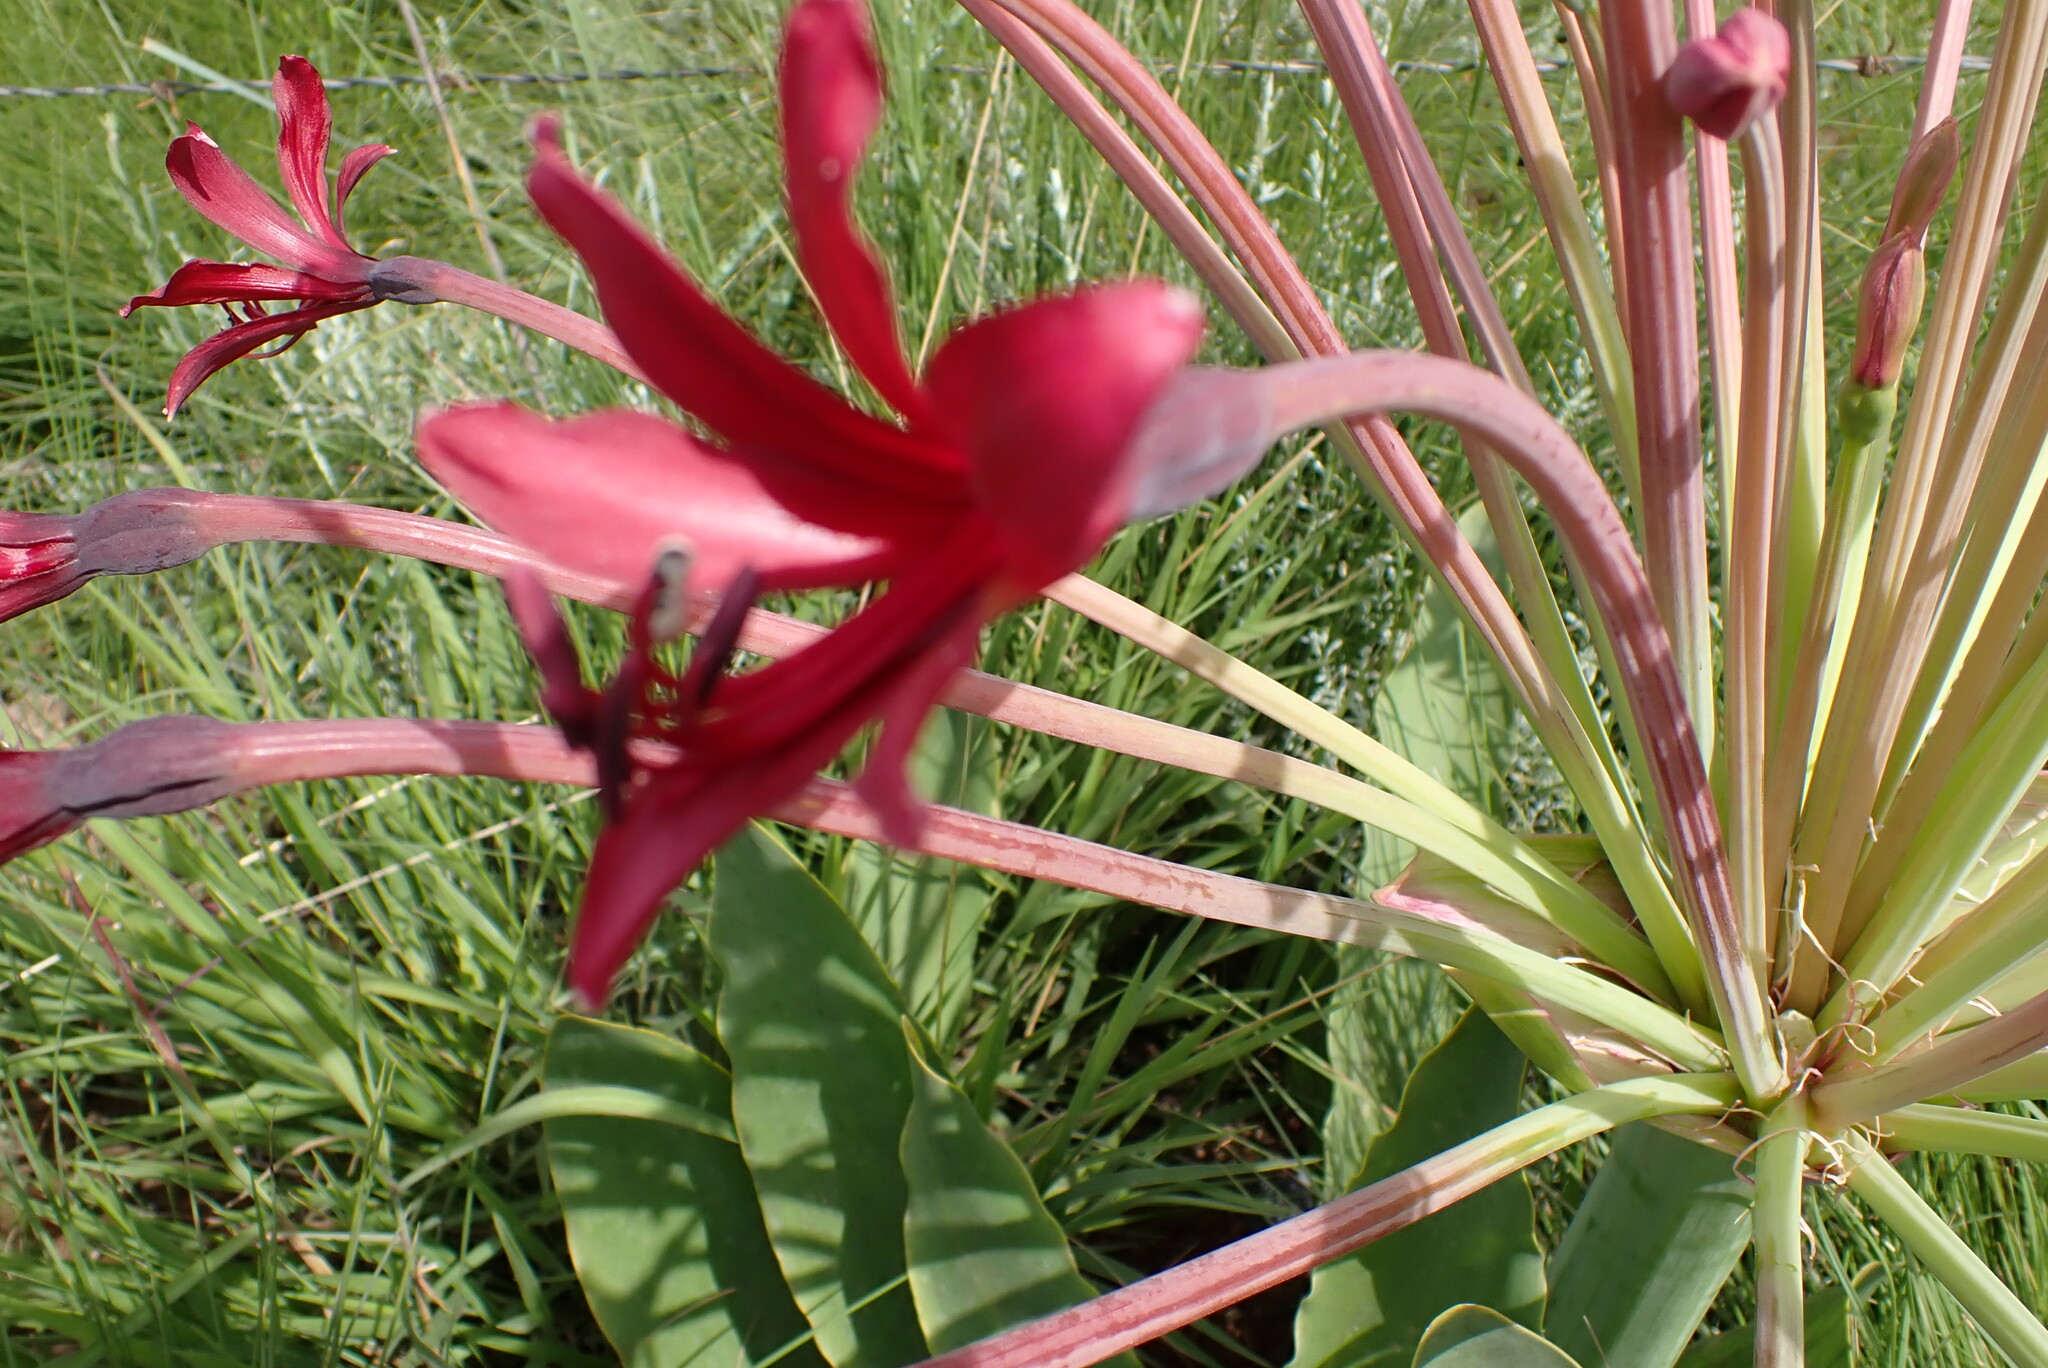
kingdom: Plantae
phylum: Tracheophyta
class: Liliopsida
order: Asparagales
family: Amaryllidaceae
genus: Brunsvigia
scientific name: Brunsvigia undulata
